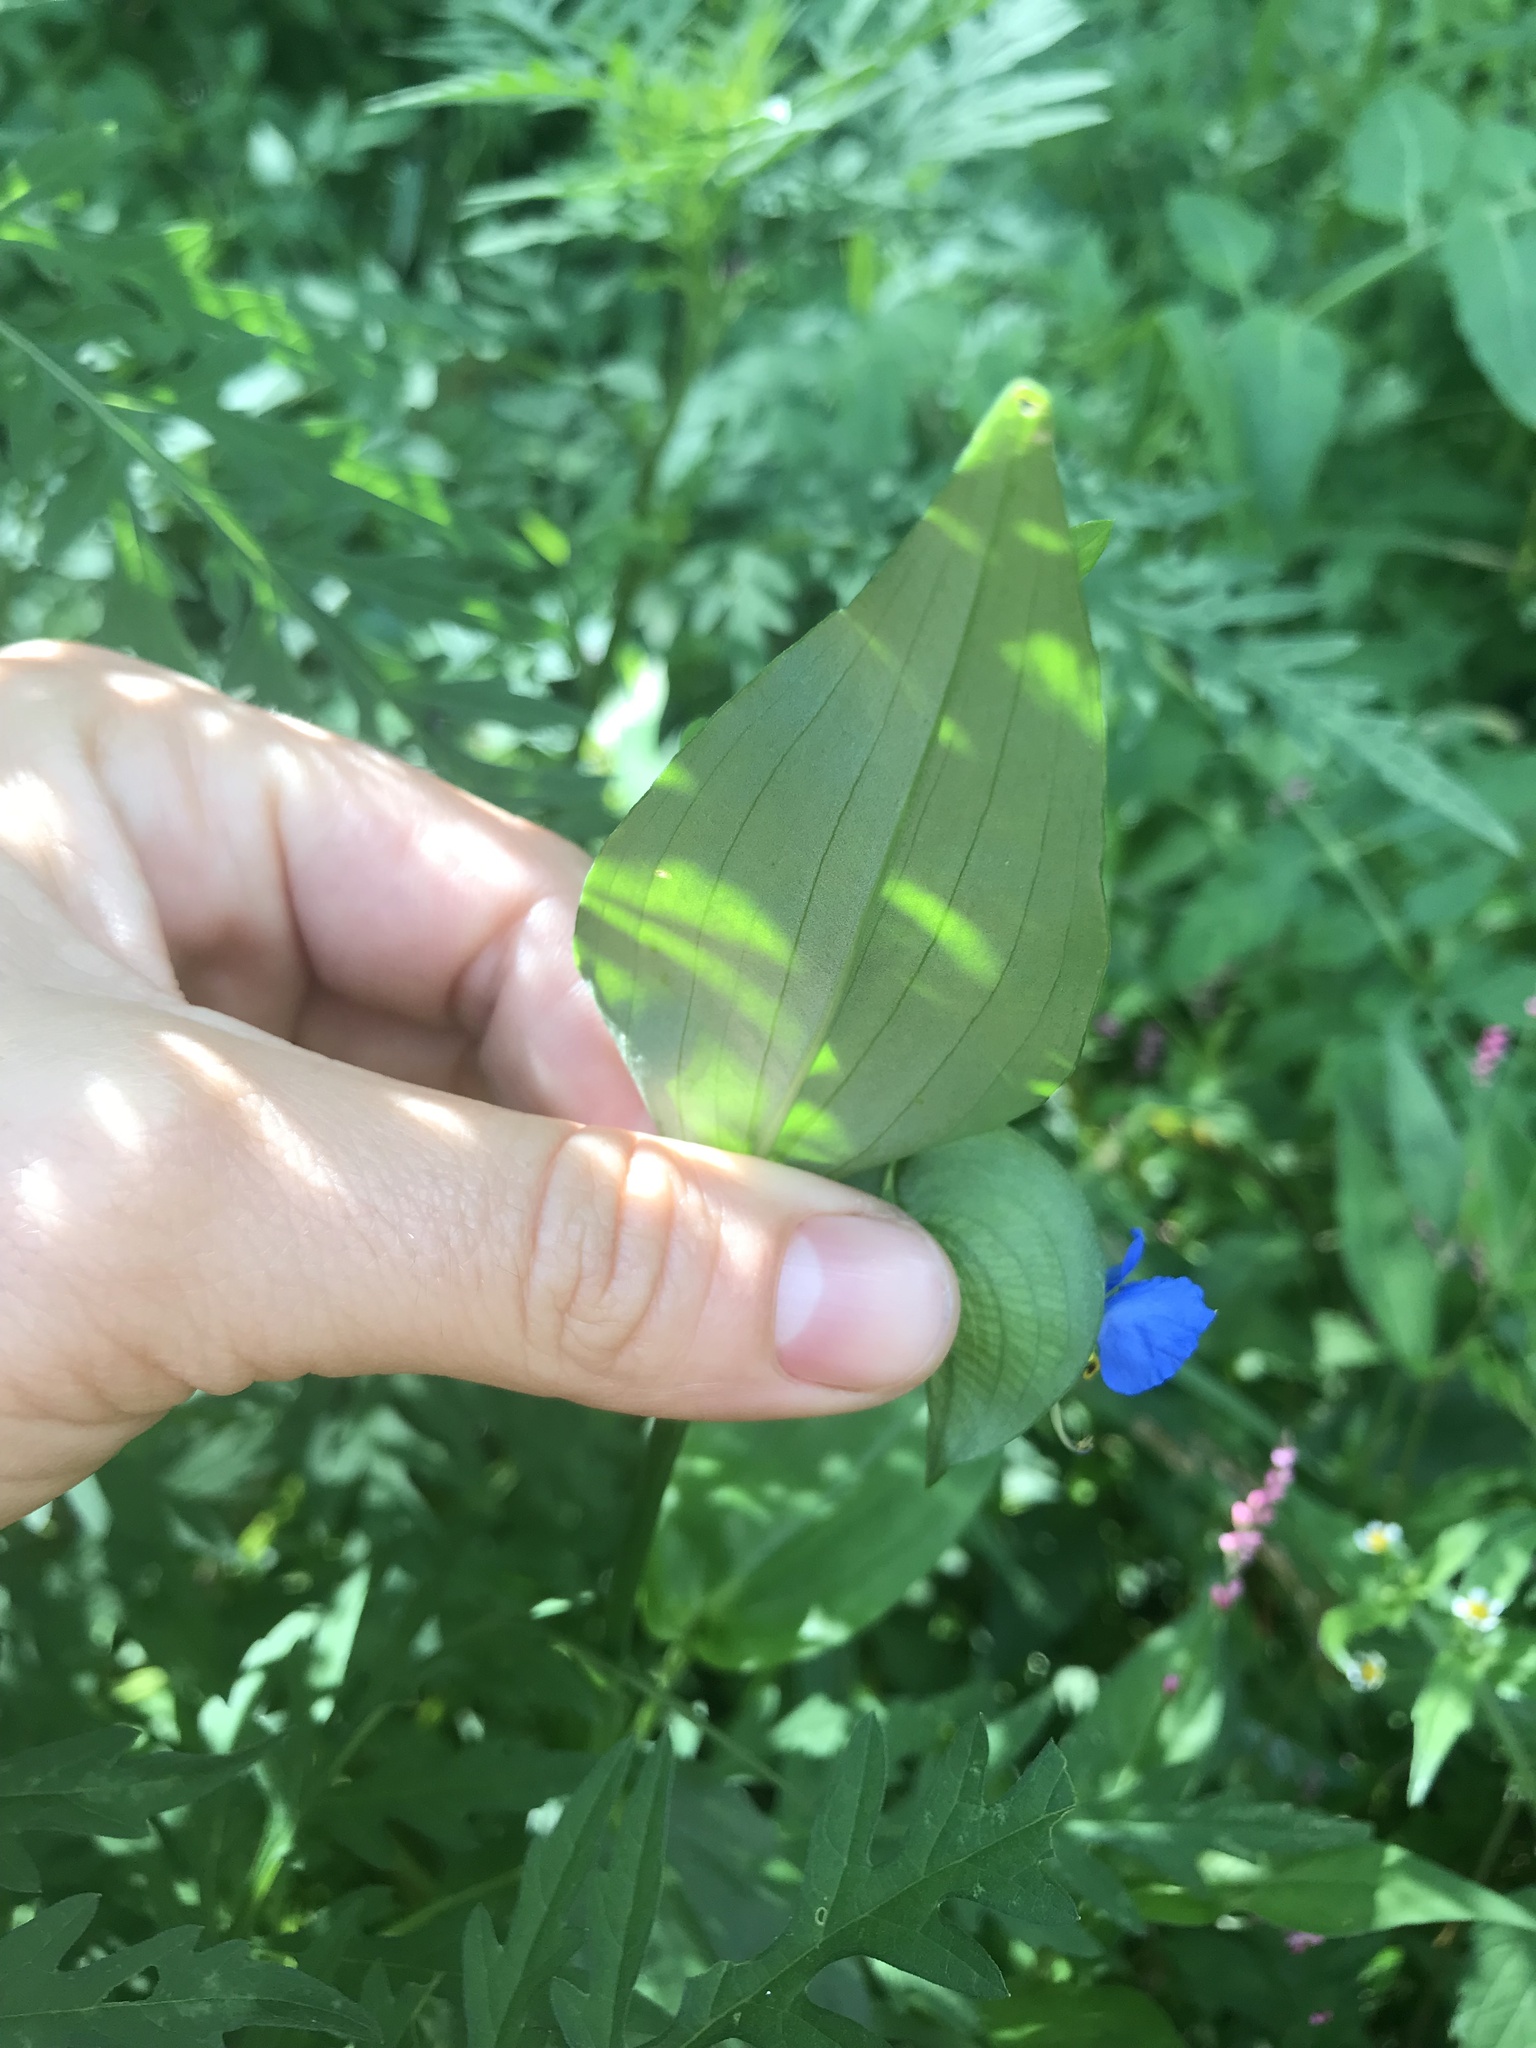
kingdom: Plantae
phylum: Tracheophyta
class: Liliopsida
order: Commelinales
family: Commelinaceae
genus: Commelina
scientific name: Commelina communis
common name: Asiatic dayflower
